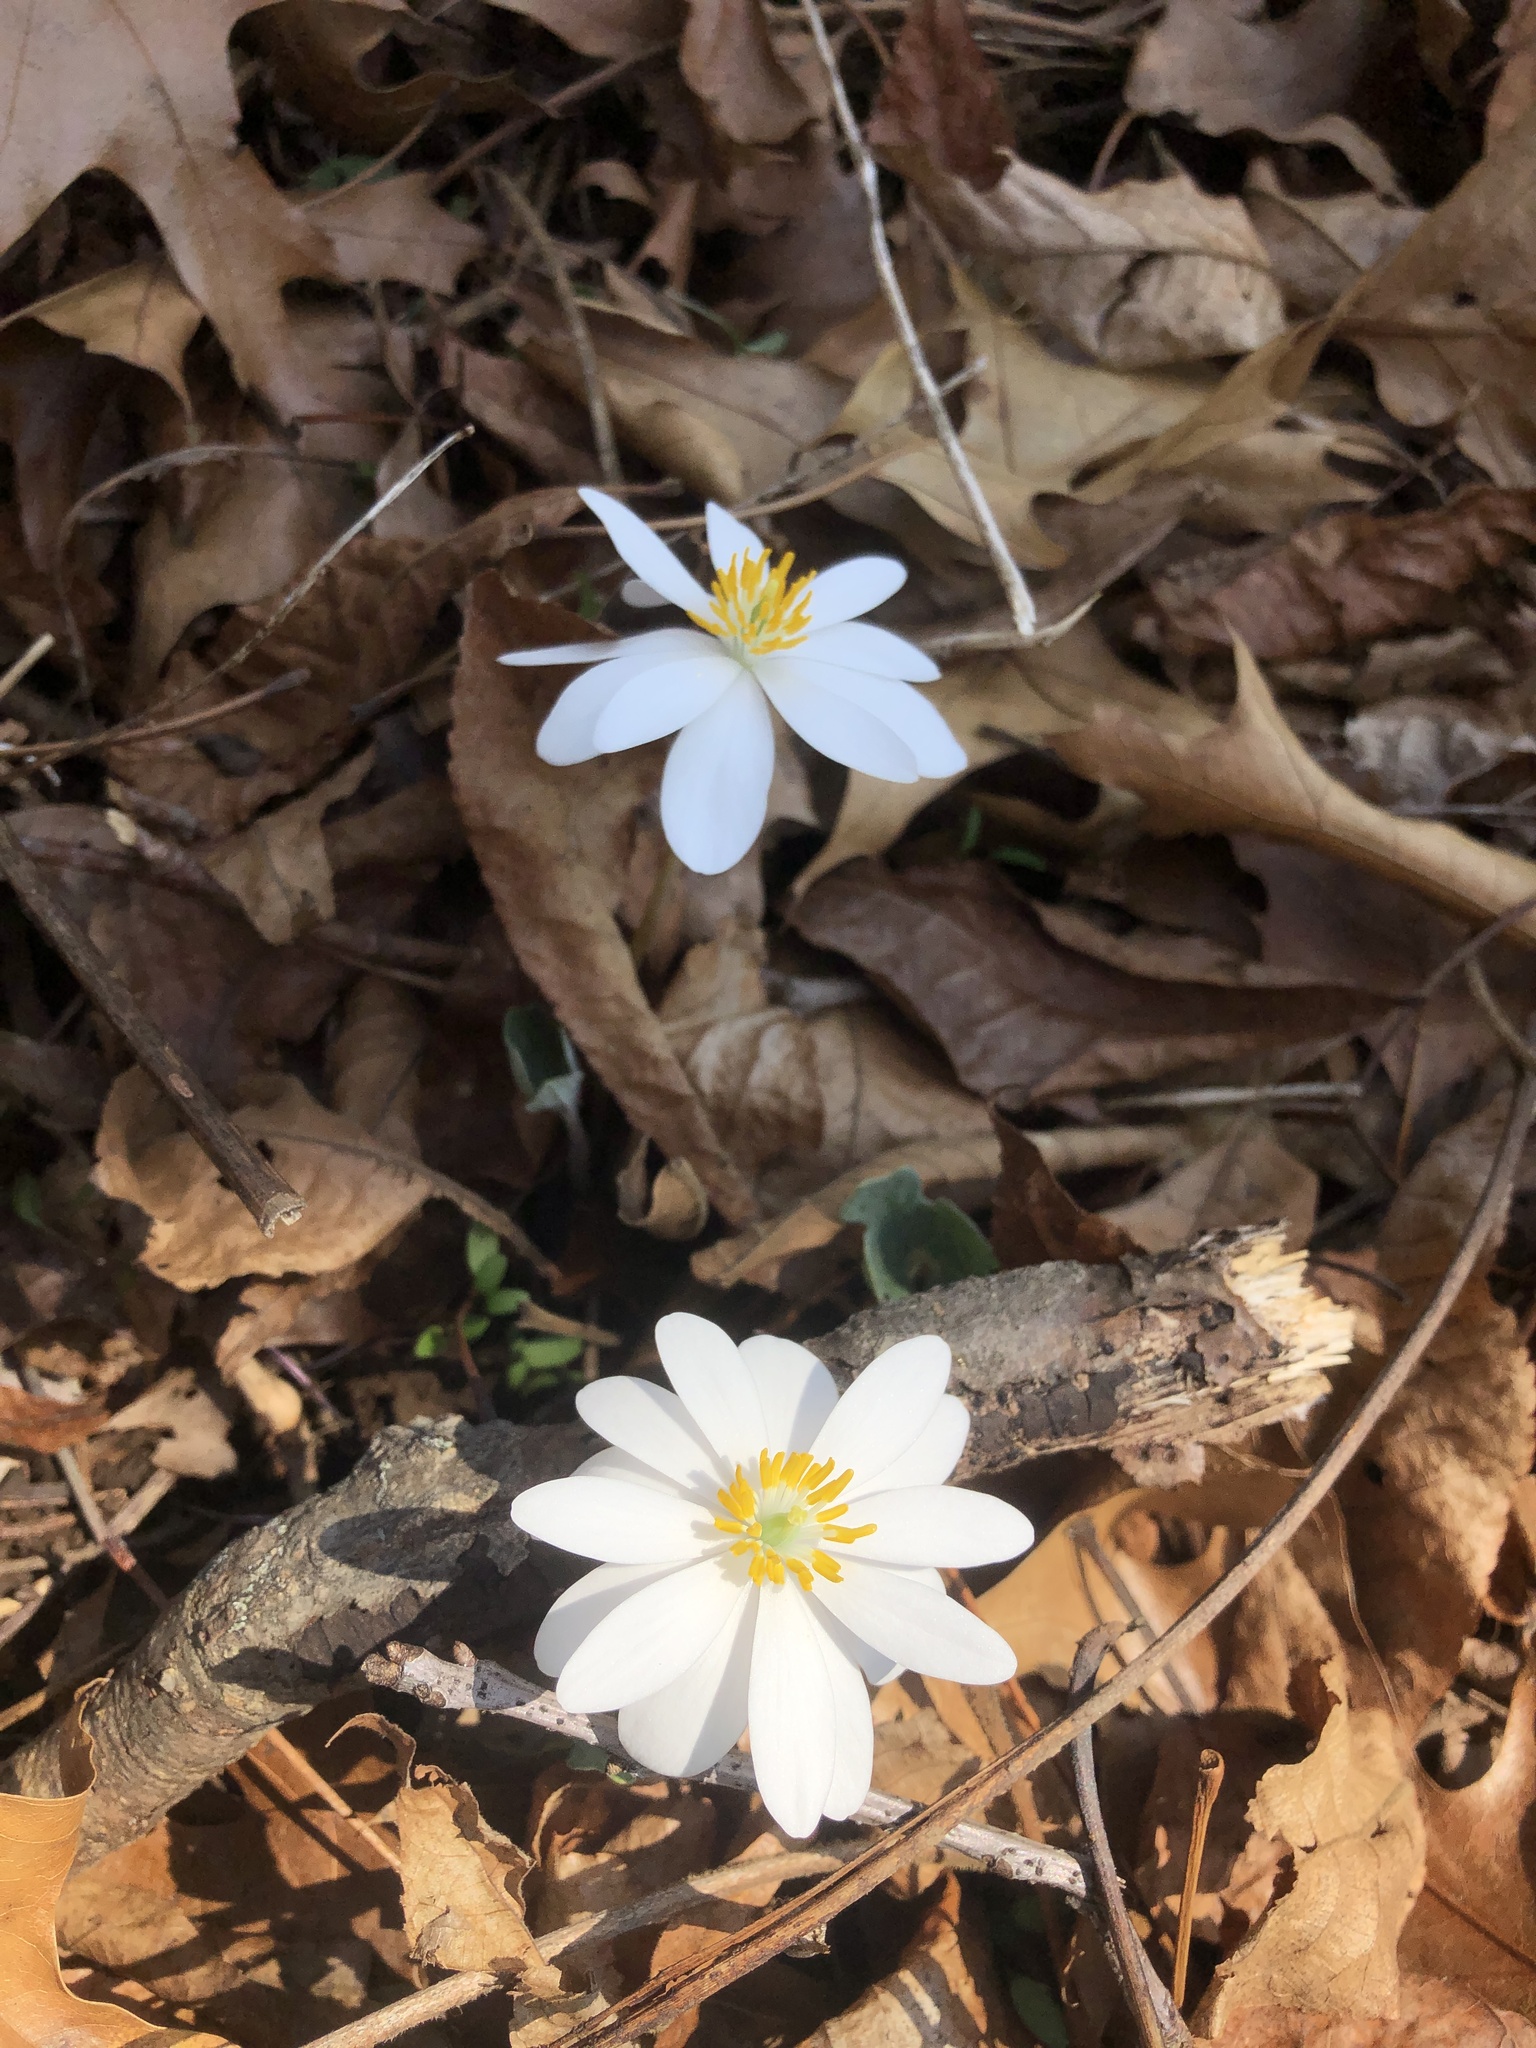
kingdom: Plantae
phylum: Tracheophyta
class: Magnoliopsida
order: Ranunculales
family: Papaveraceae
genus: Sanguinaria
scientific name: Sanguinaria canadensis
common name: Bloodroot
